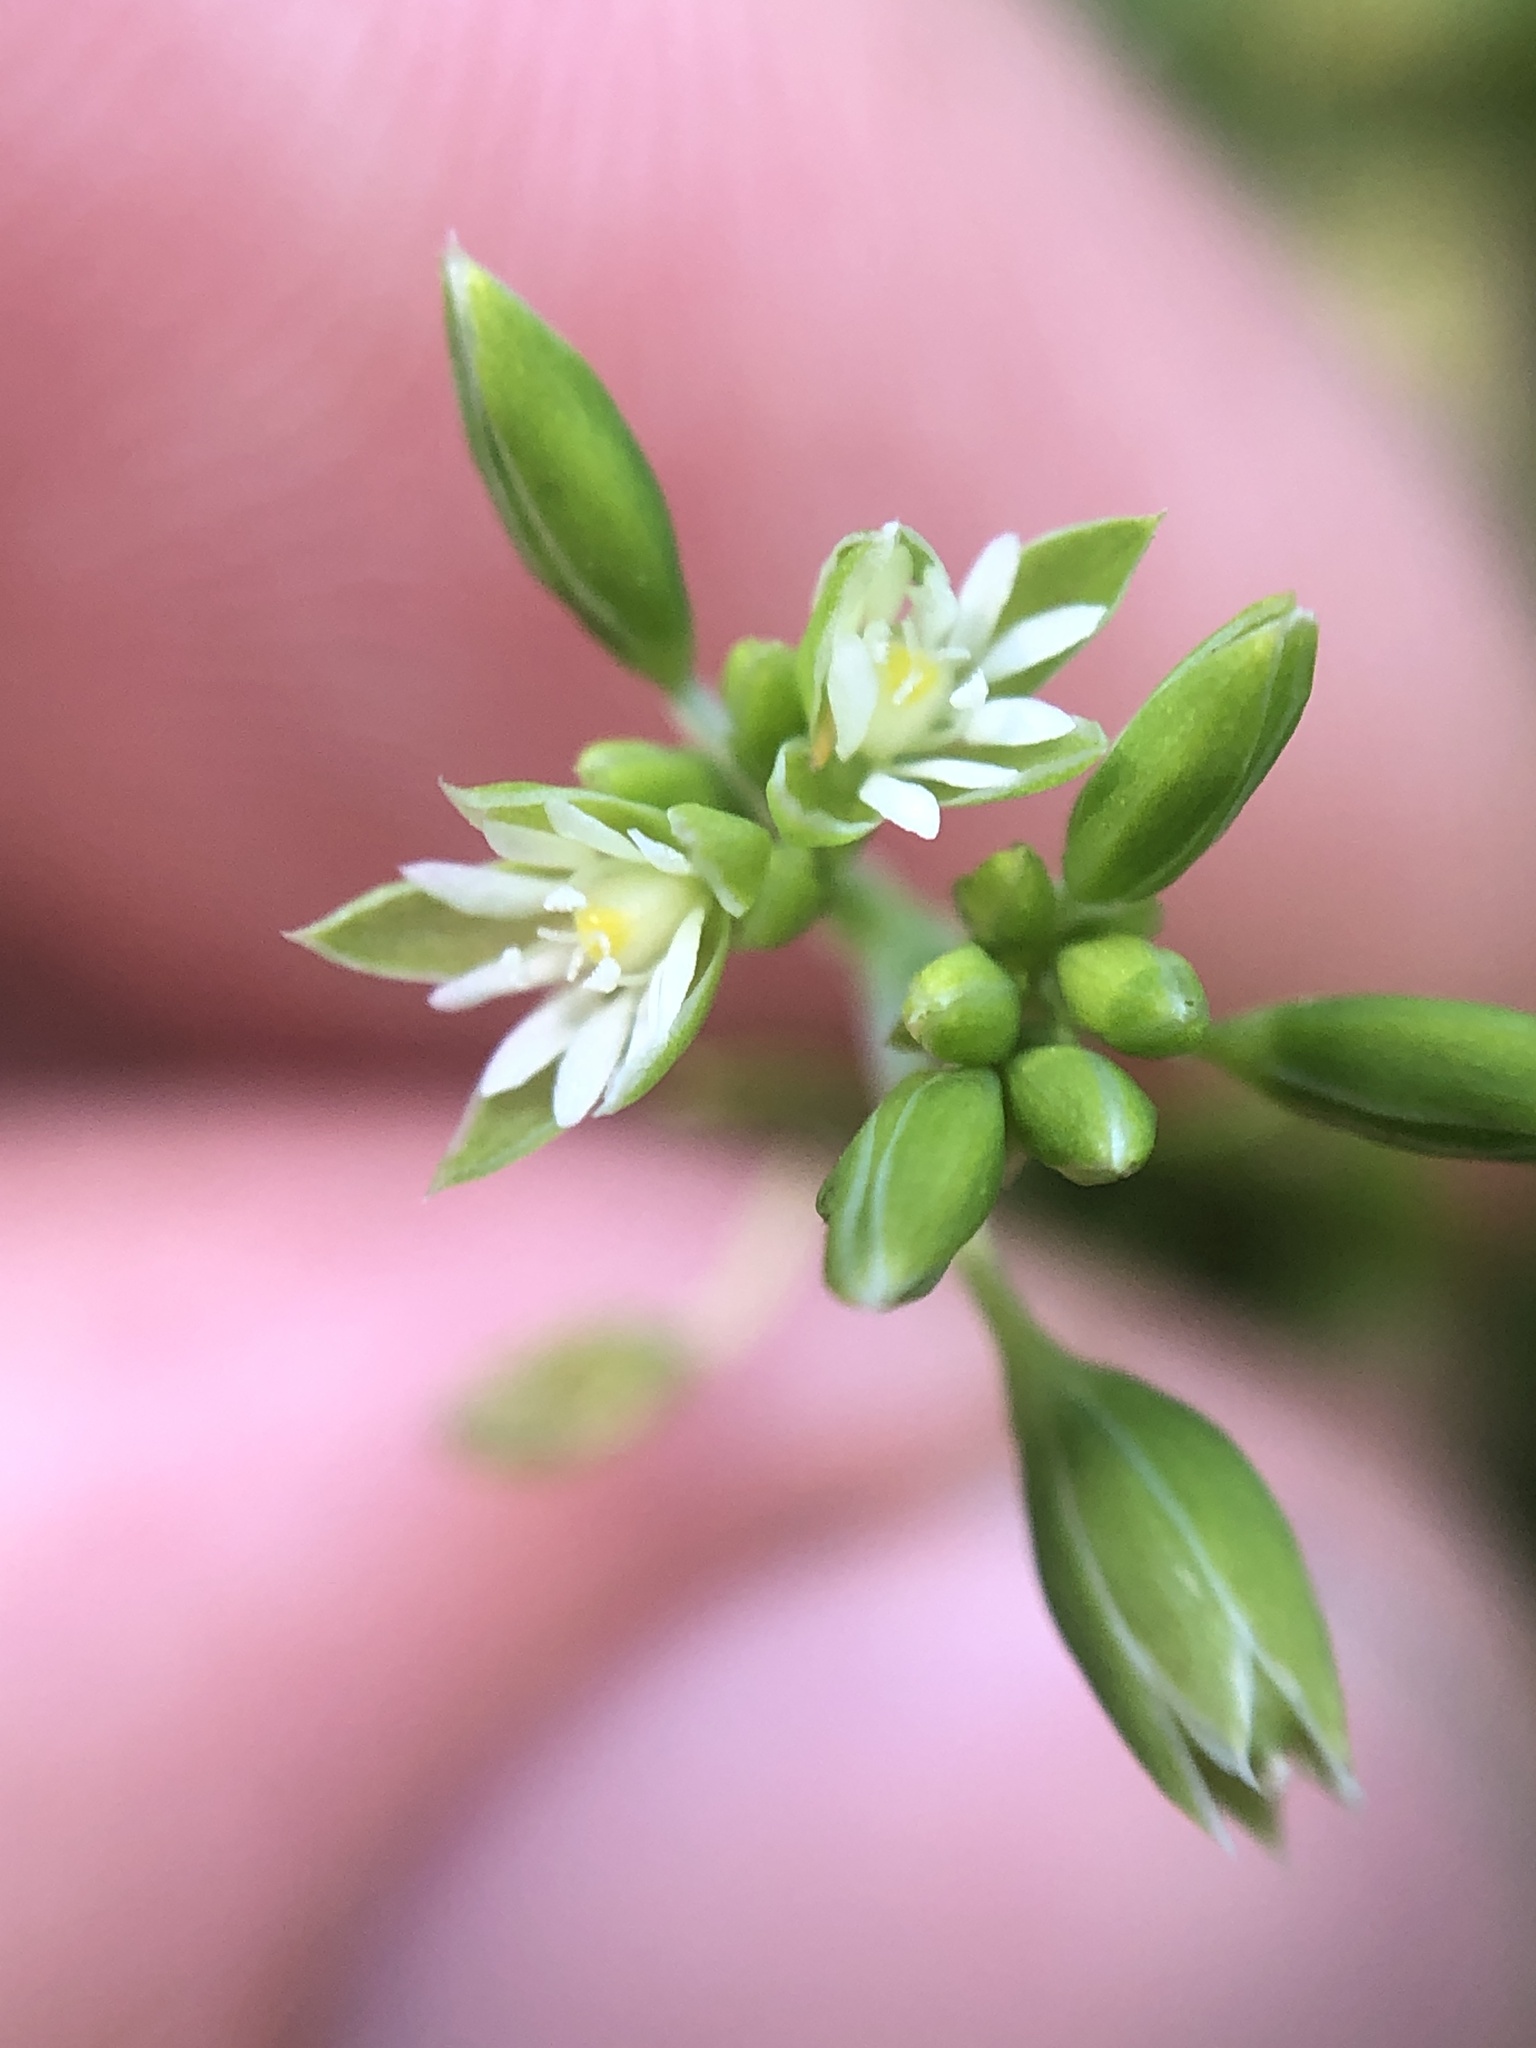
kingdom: Plantae
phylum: Tracheophyta
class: Magnoliopsida
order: Caryophyllales
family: Caryophyllaceae
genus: Drymaria
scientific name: Drymaria cordata
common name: Whitesnow
